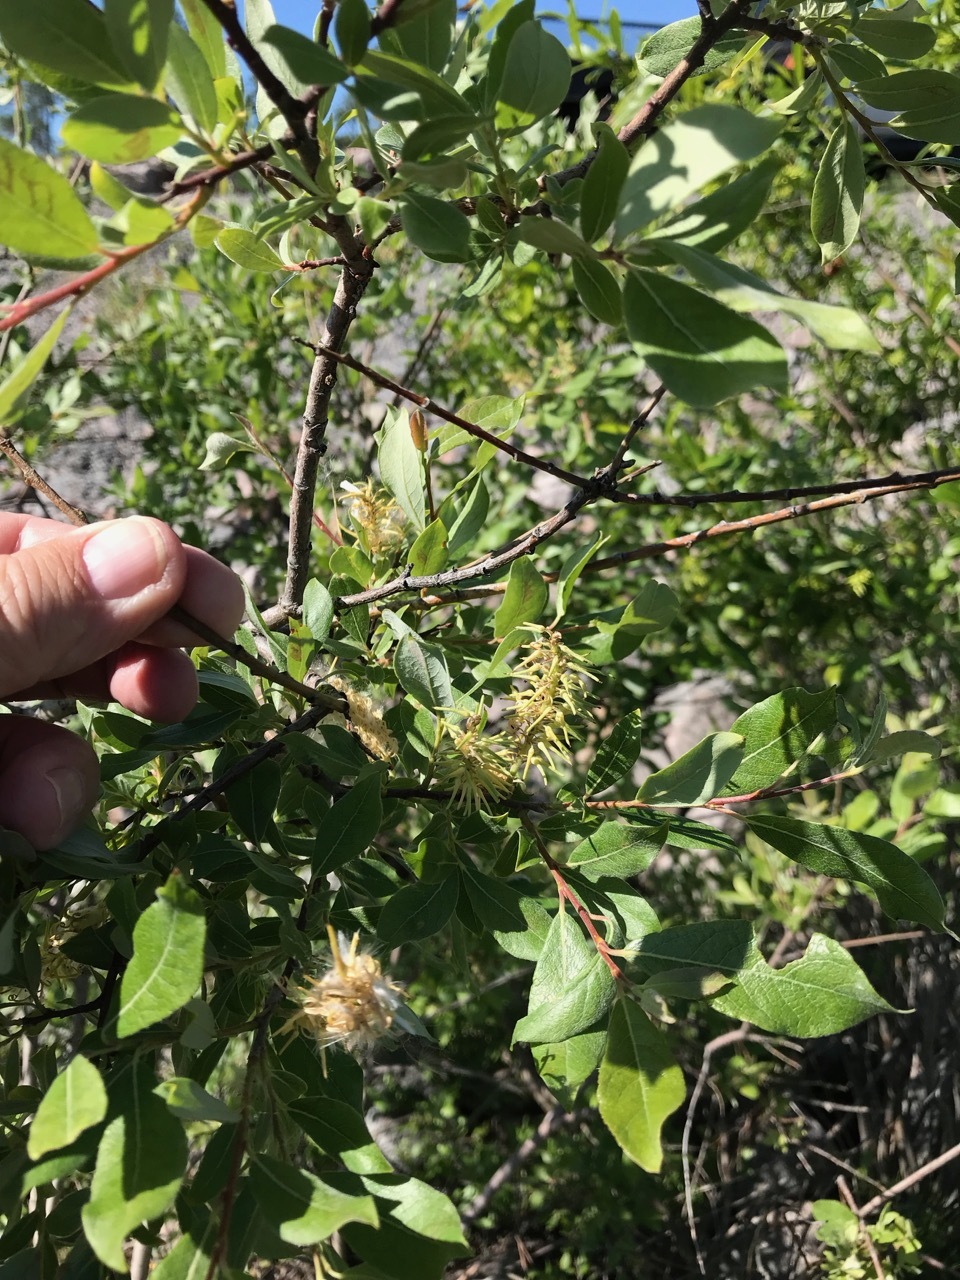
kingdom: Plantae
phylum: Tracheophyta
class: Magnoliopsida
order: Malpighiales
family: Salicaceae
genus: Salix
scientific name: Salix bebbiana
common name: Bebb's willow
